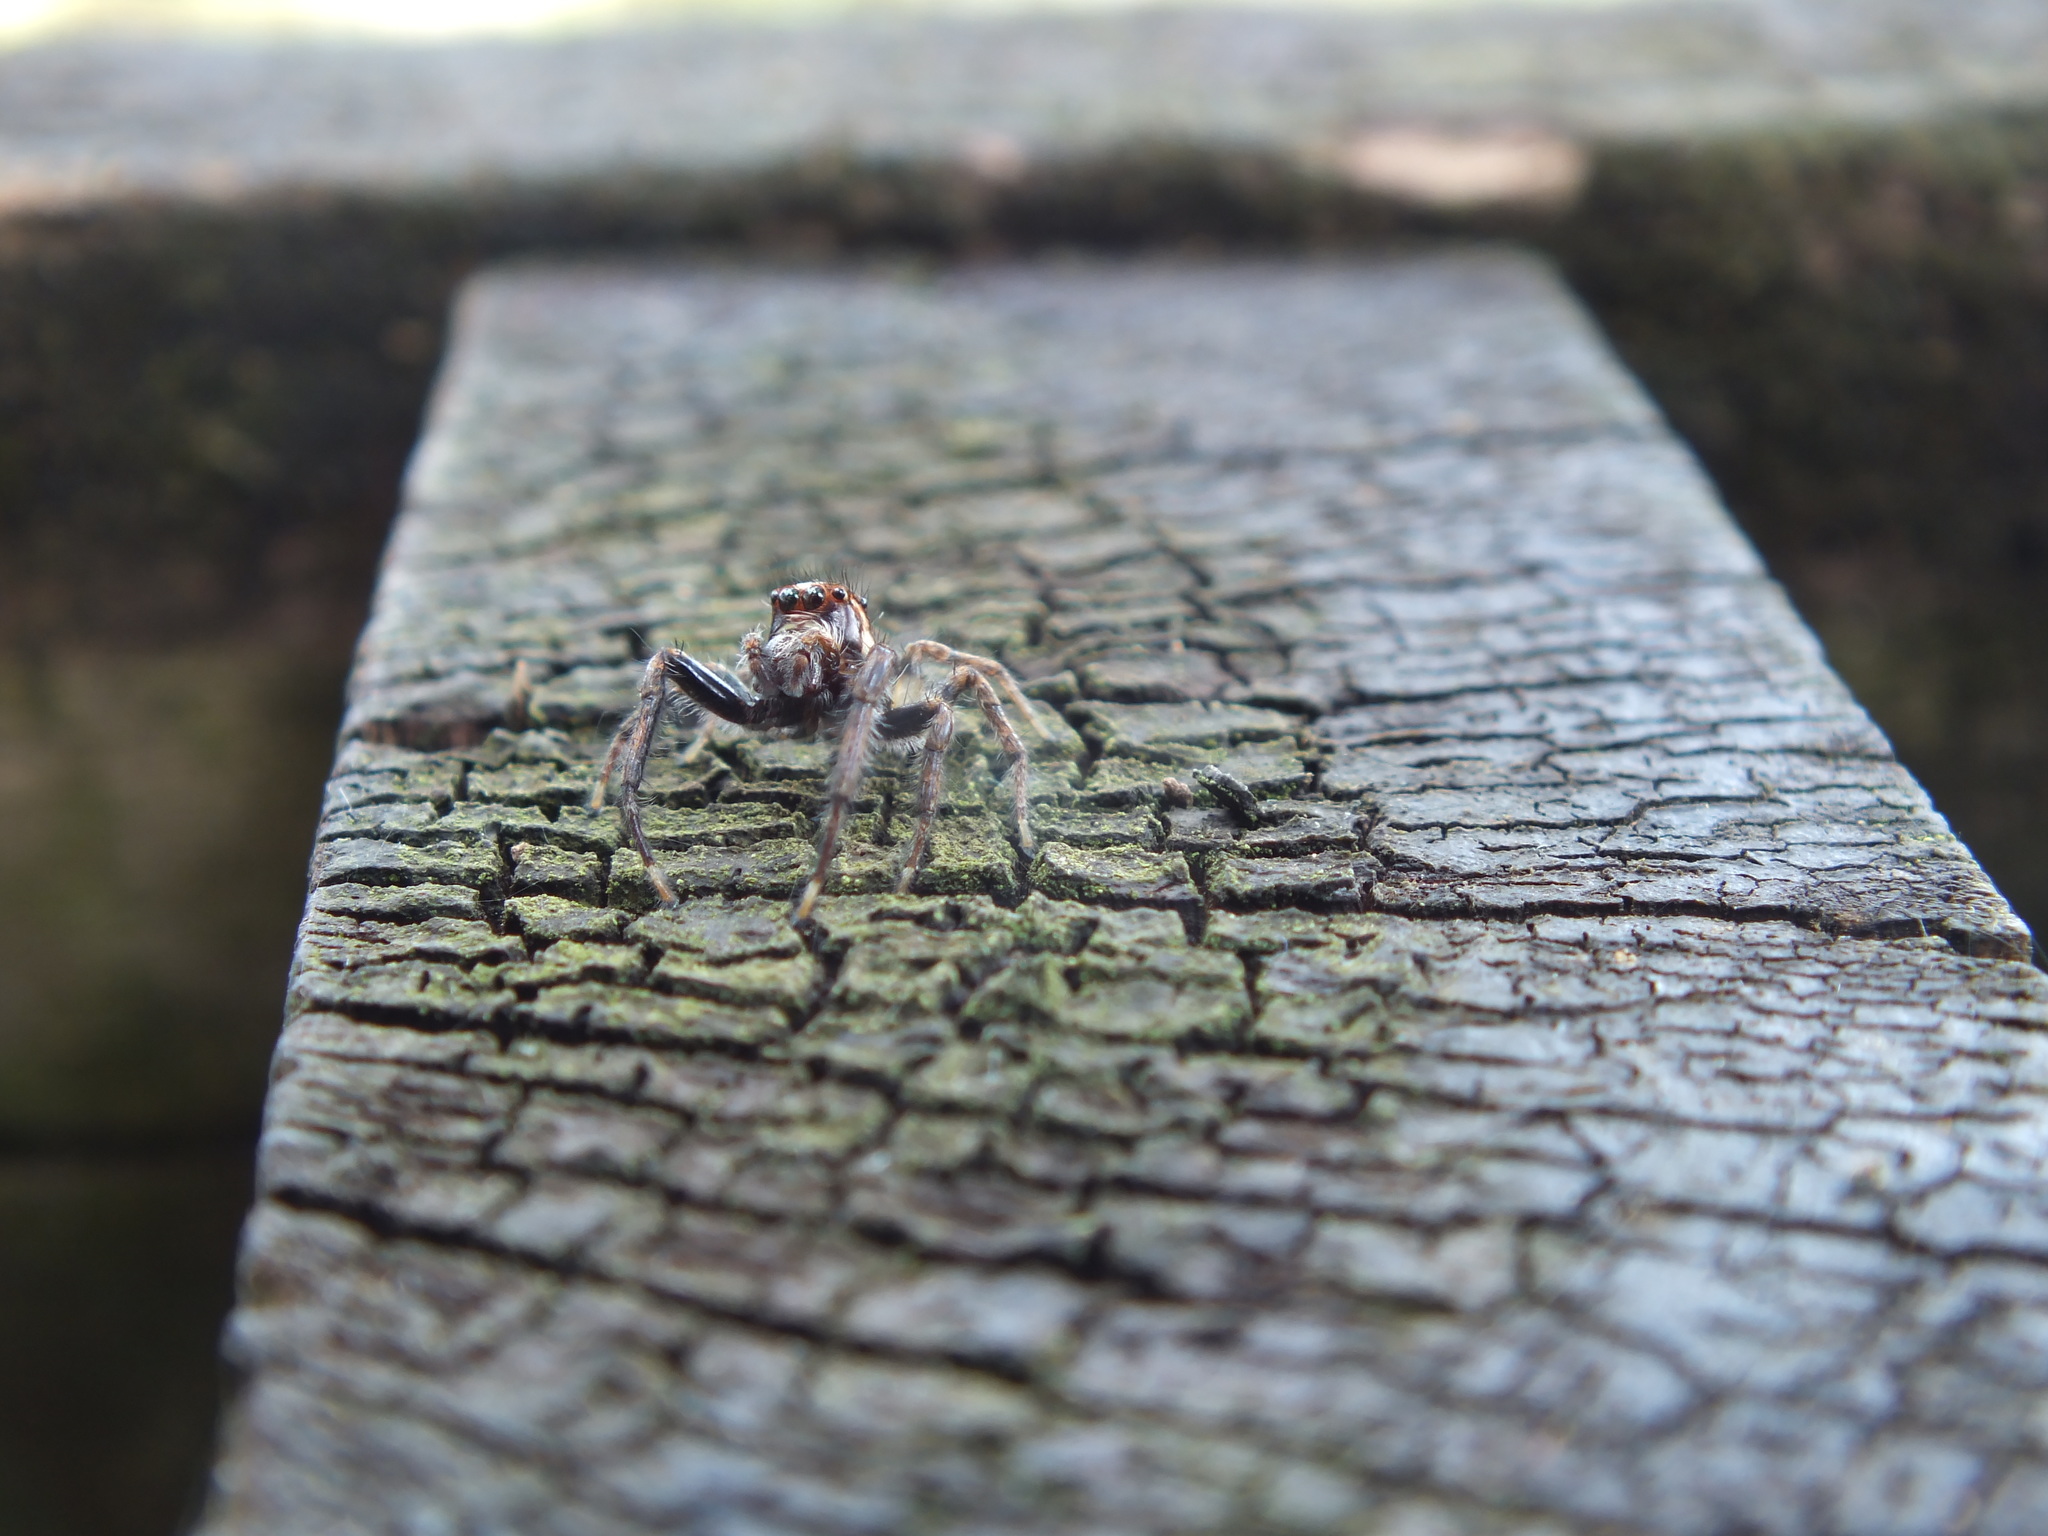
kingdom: Animalia
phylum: Arthropoda
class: Arachnida
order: Araneae
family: Salticidae
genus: Frigga
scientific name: Frigga crocuta
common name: Jumping spiders
